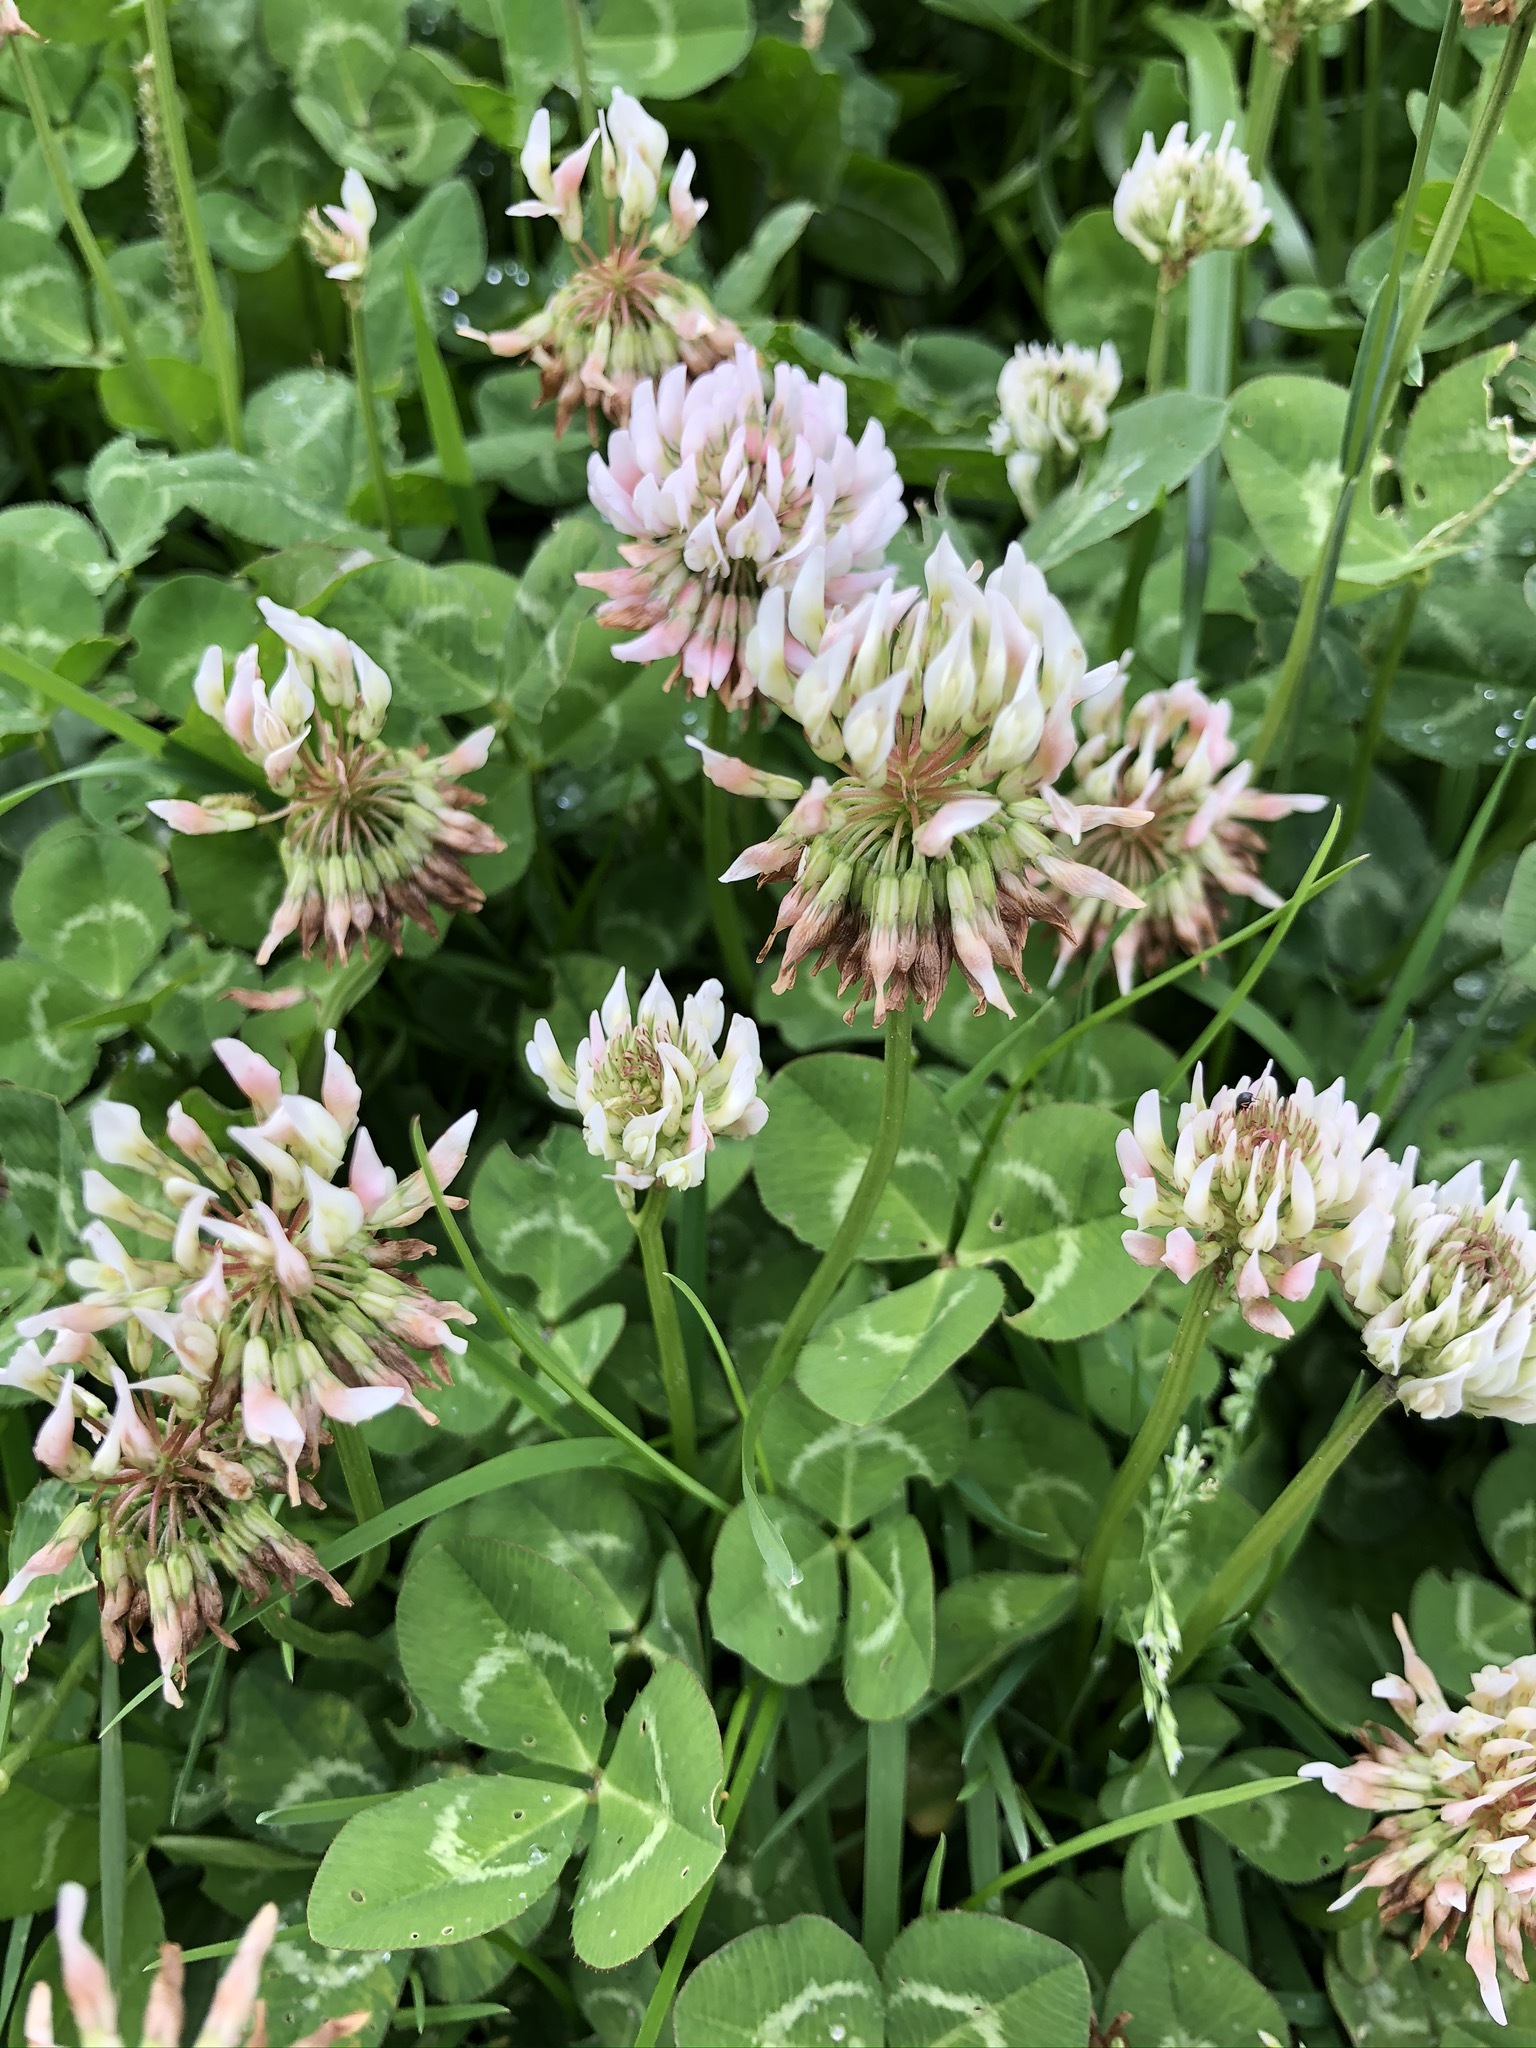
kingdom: Plantae
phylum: Tracheophyta
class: Magnoliopsida
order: Fabales
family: Fabaceae
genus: Trifolium
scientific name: Trifolium repens
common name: White clover
